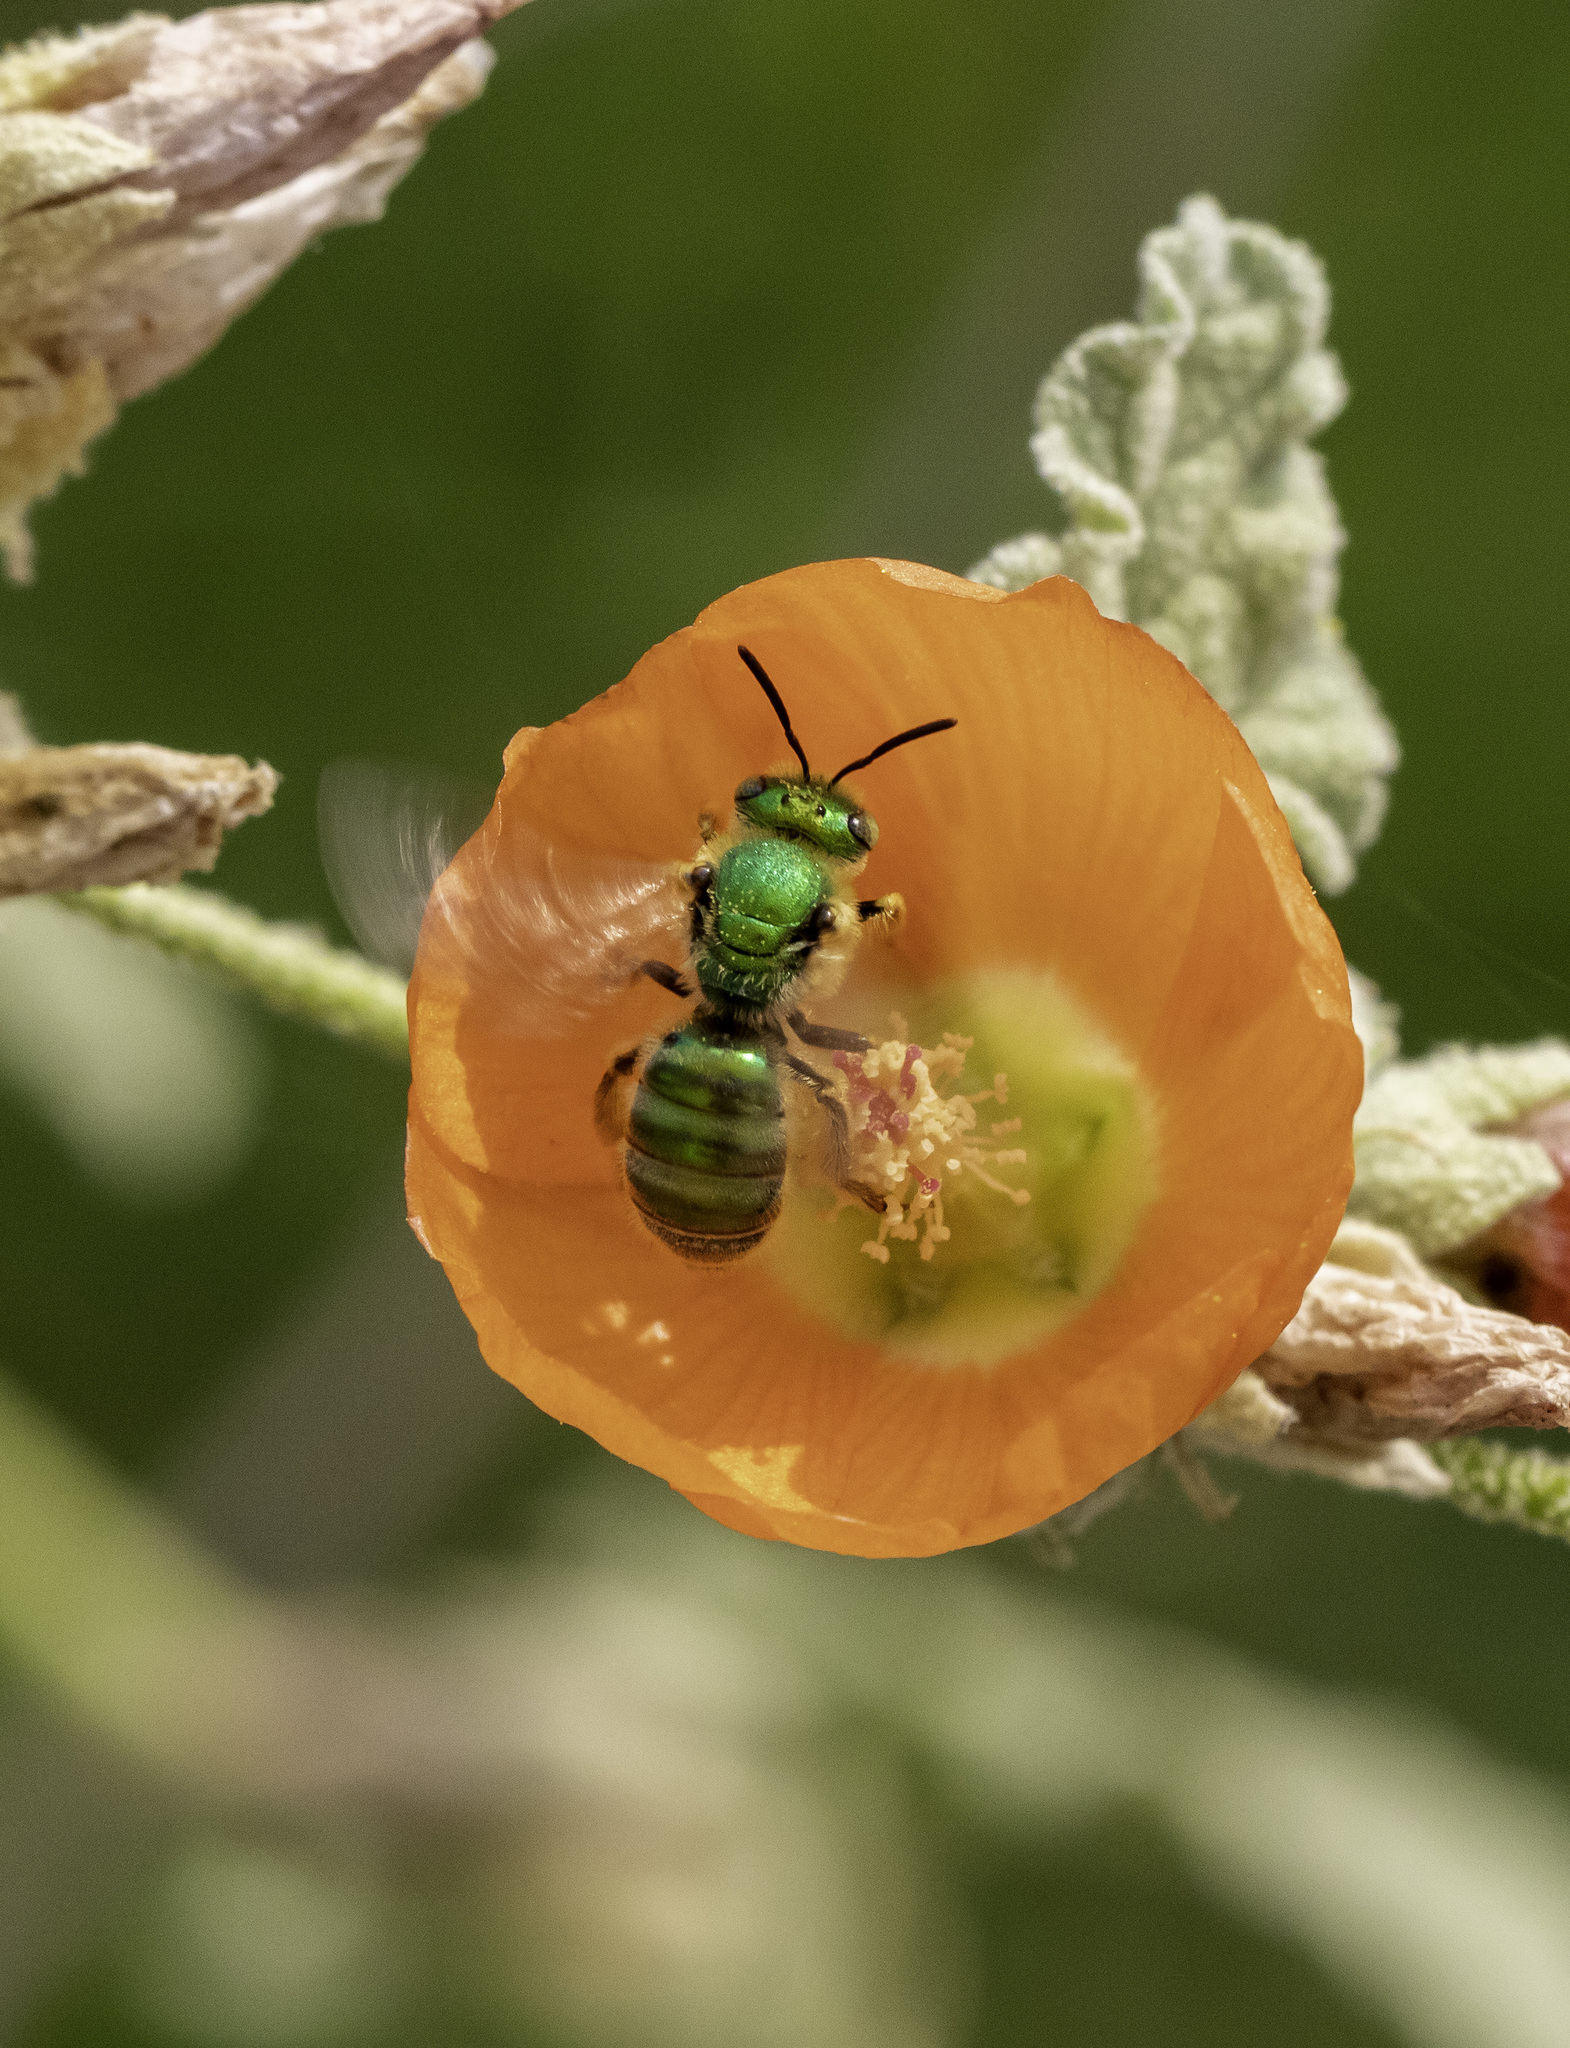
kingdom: Animalia
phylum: Arthropoda
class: Insecta
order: Hymenoptera
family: Halictidae
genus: Agapostemon
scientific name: Agapostemon texanus
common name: Texas striped sweat bee
